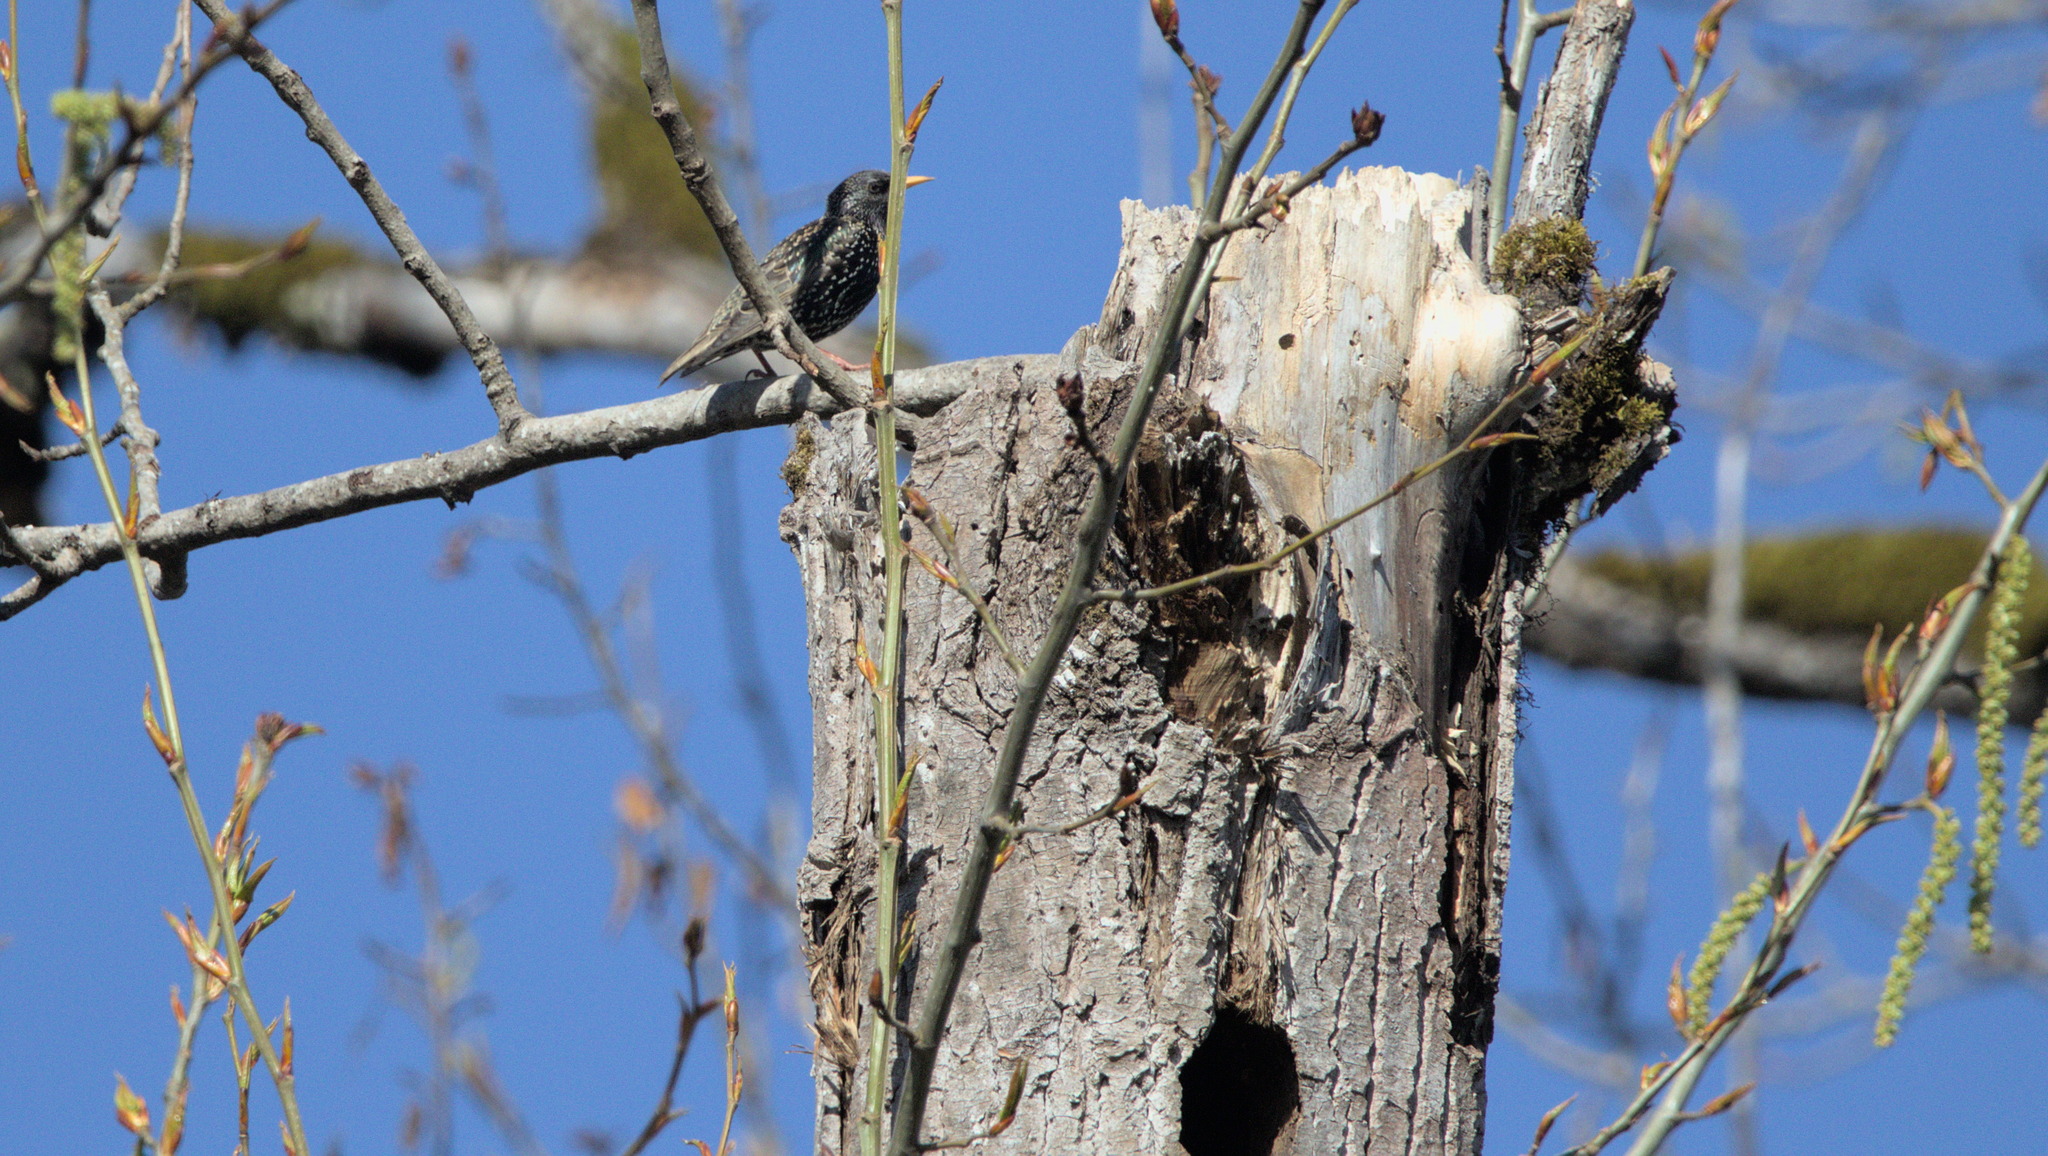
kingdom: Animalia
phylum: Chordata
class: Aves
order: Passeriformes
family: Sturnidae
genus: Sturnus
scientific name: Sturnus vulgaris
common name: Common starling
